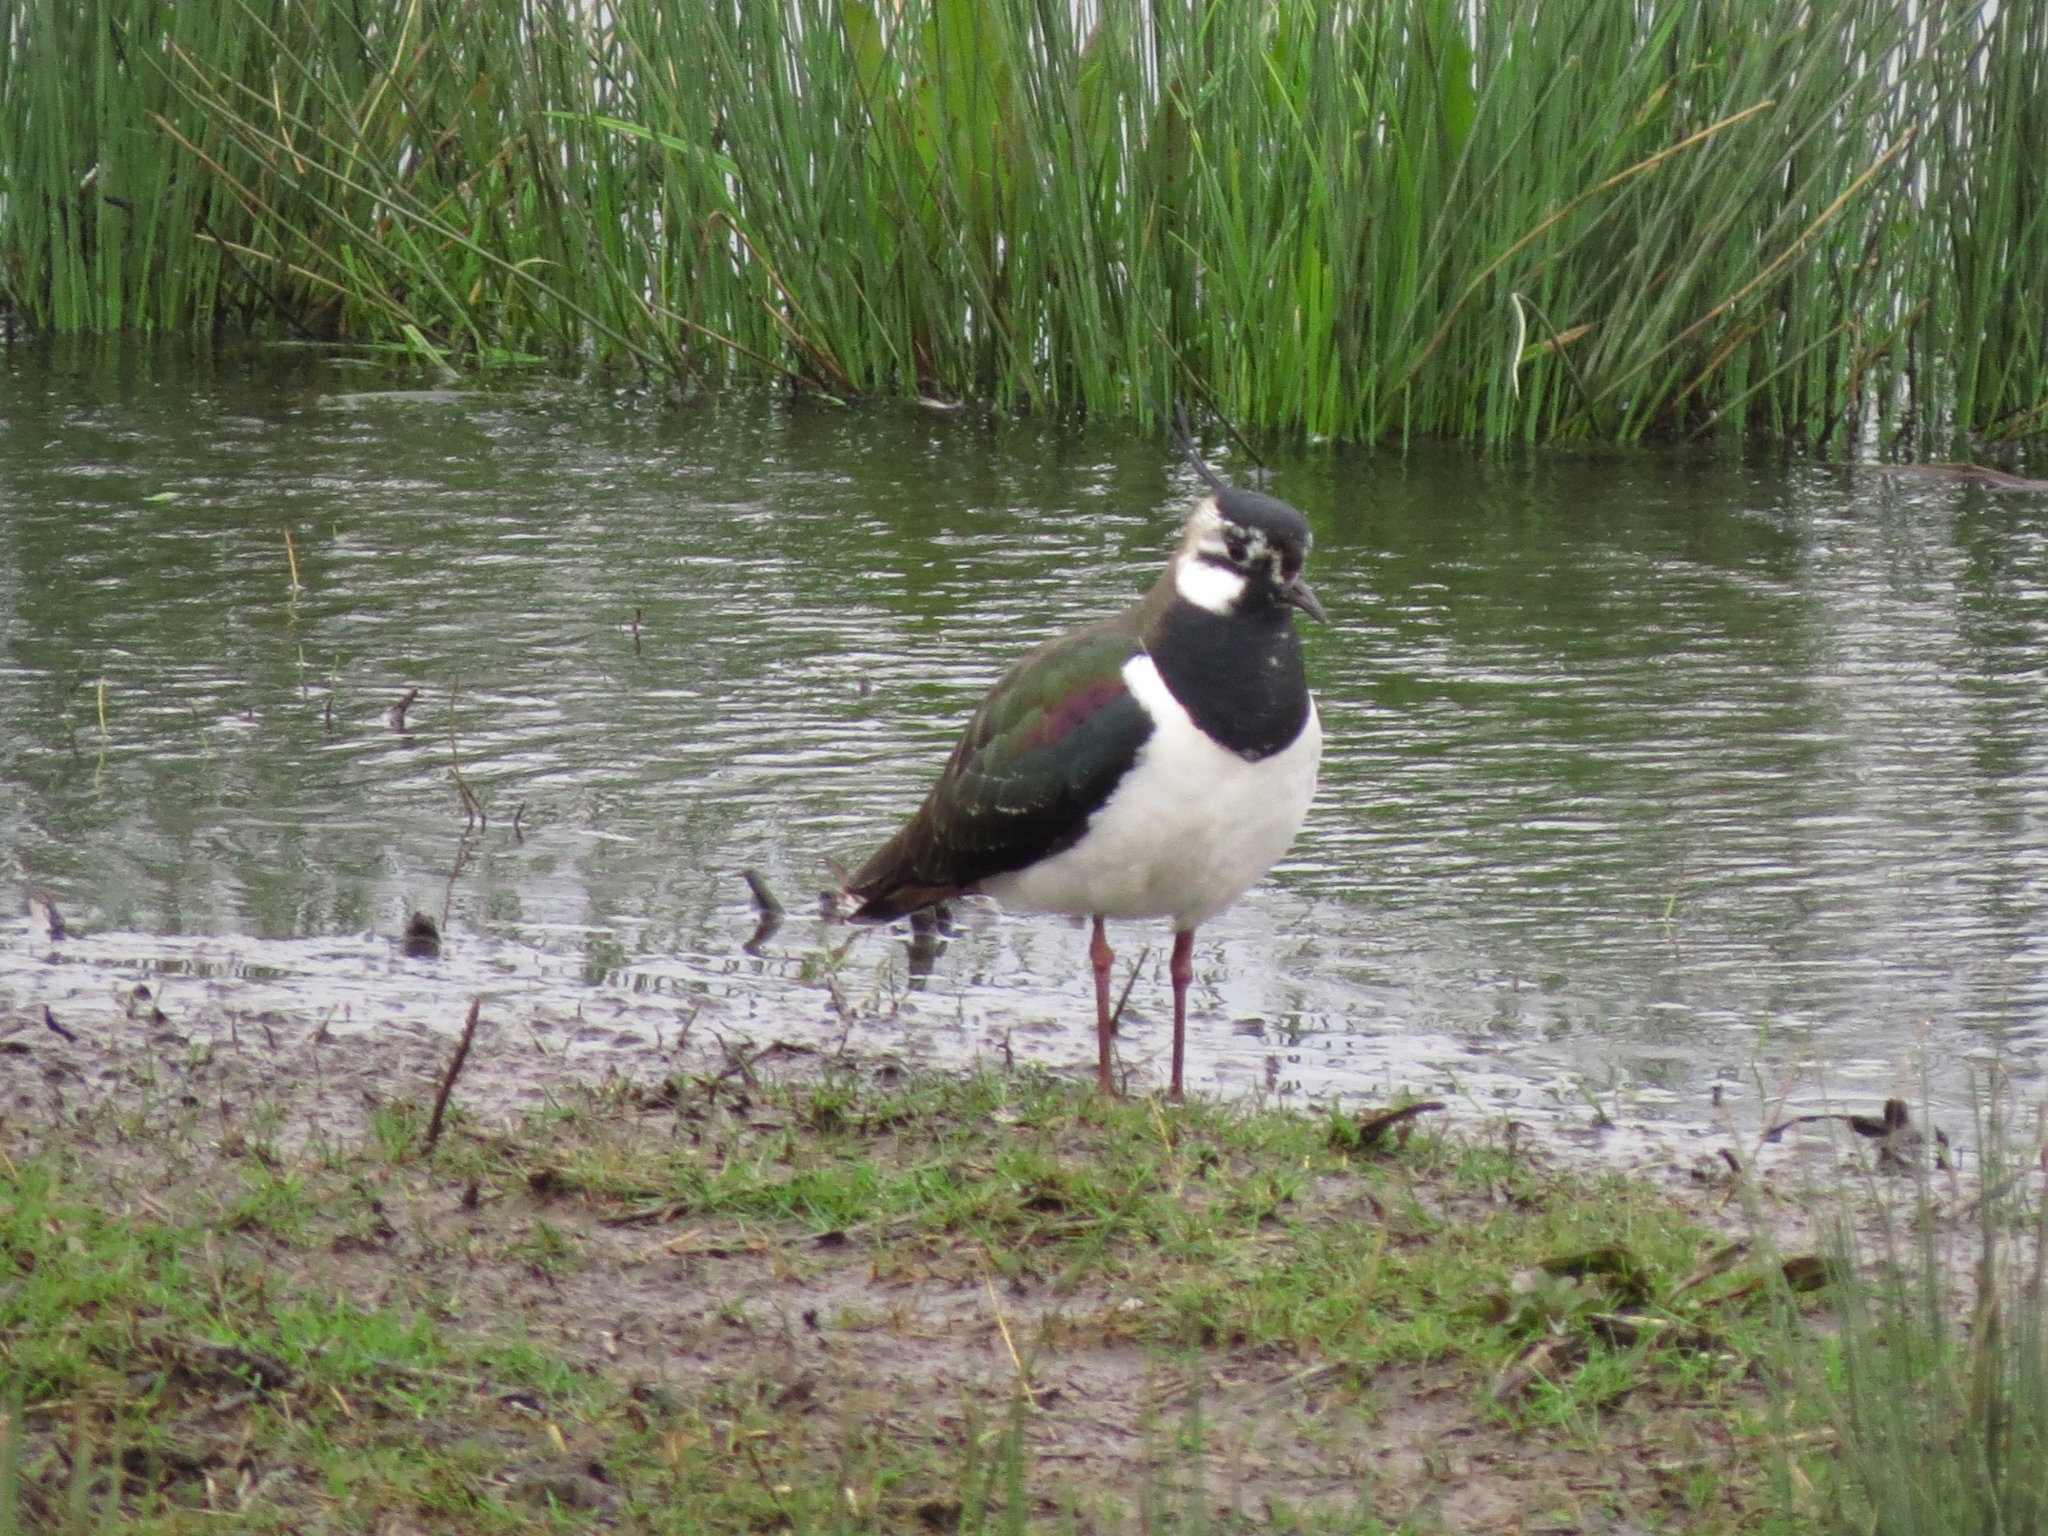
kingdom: Animalia
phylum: Chordata
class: Aves
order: Charadriiformes
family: Charadriidae
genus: Vanellus
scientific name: Vanellus vanellus
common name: Northern lapwing
